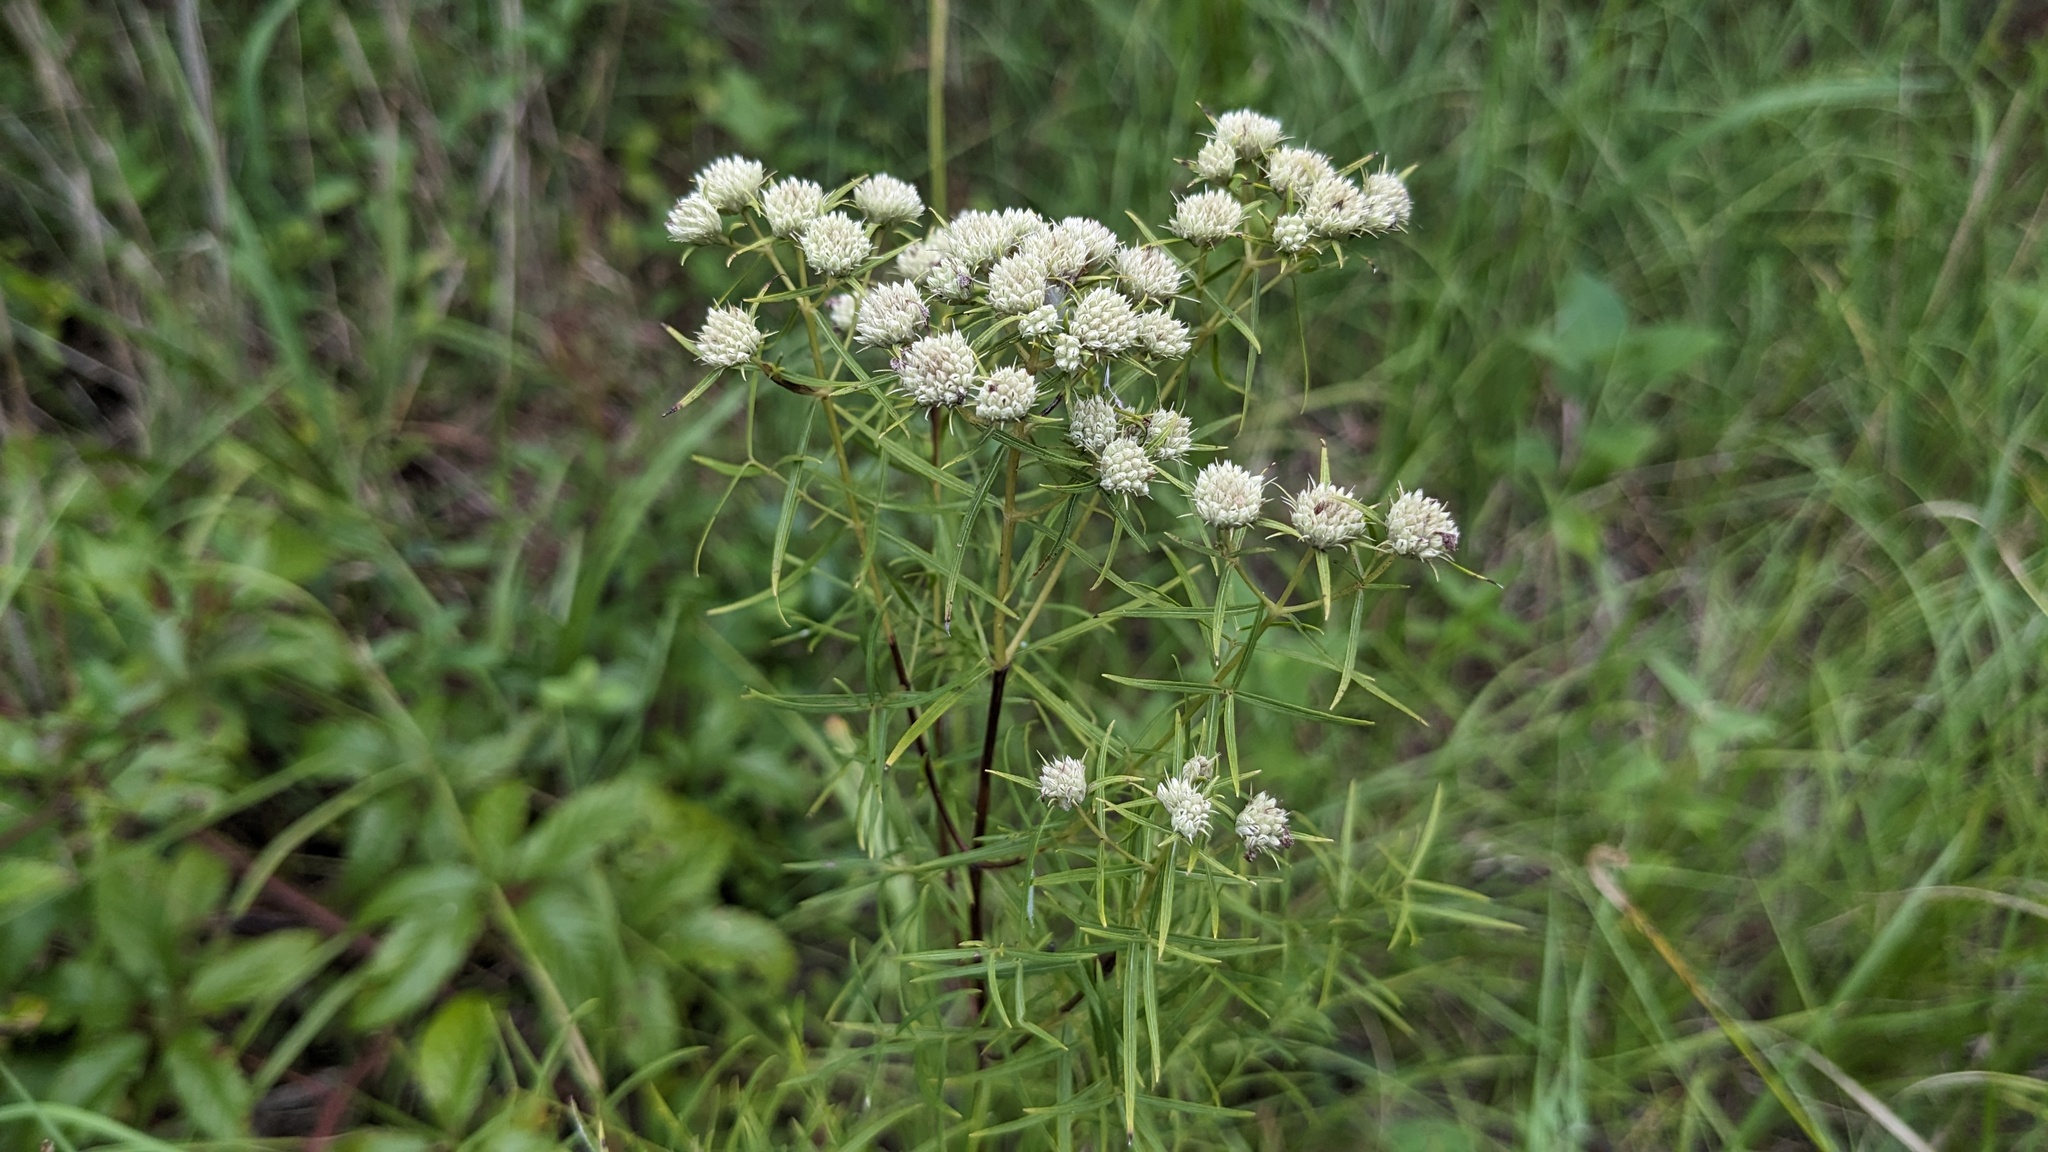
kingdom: Plantae
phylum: Tracheophyta
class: Magnoliopsida
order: Lamiales
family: Lamiaceae
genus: Pycnanthemum
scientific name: Pycnanthemum tenuifolium
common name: Narrow-leaf mountain-mint
